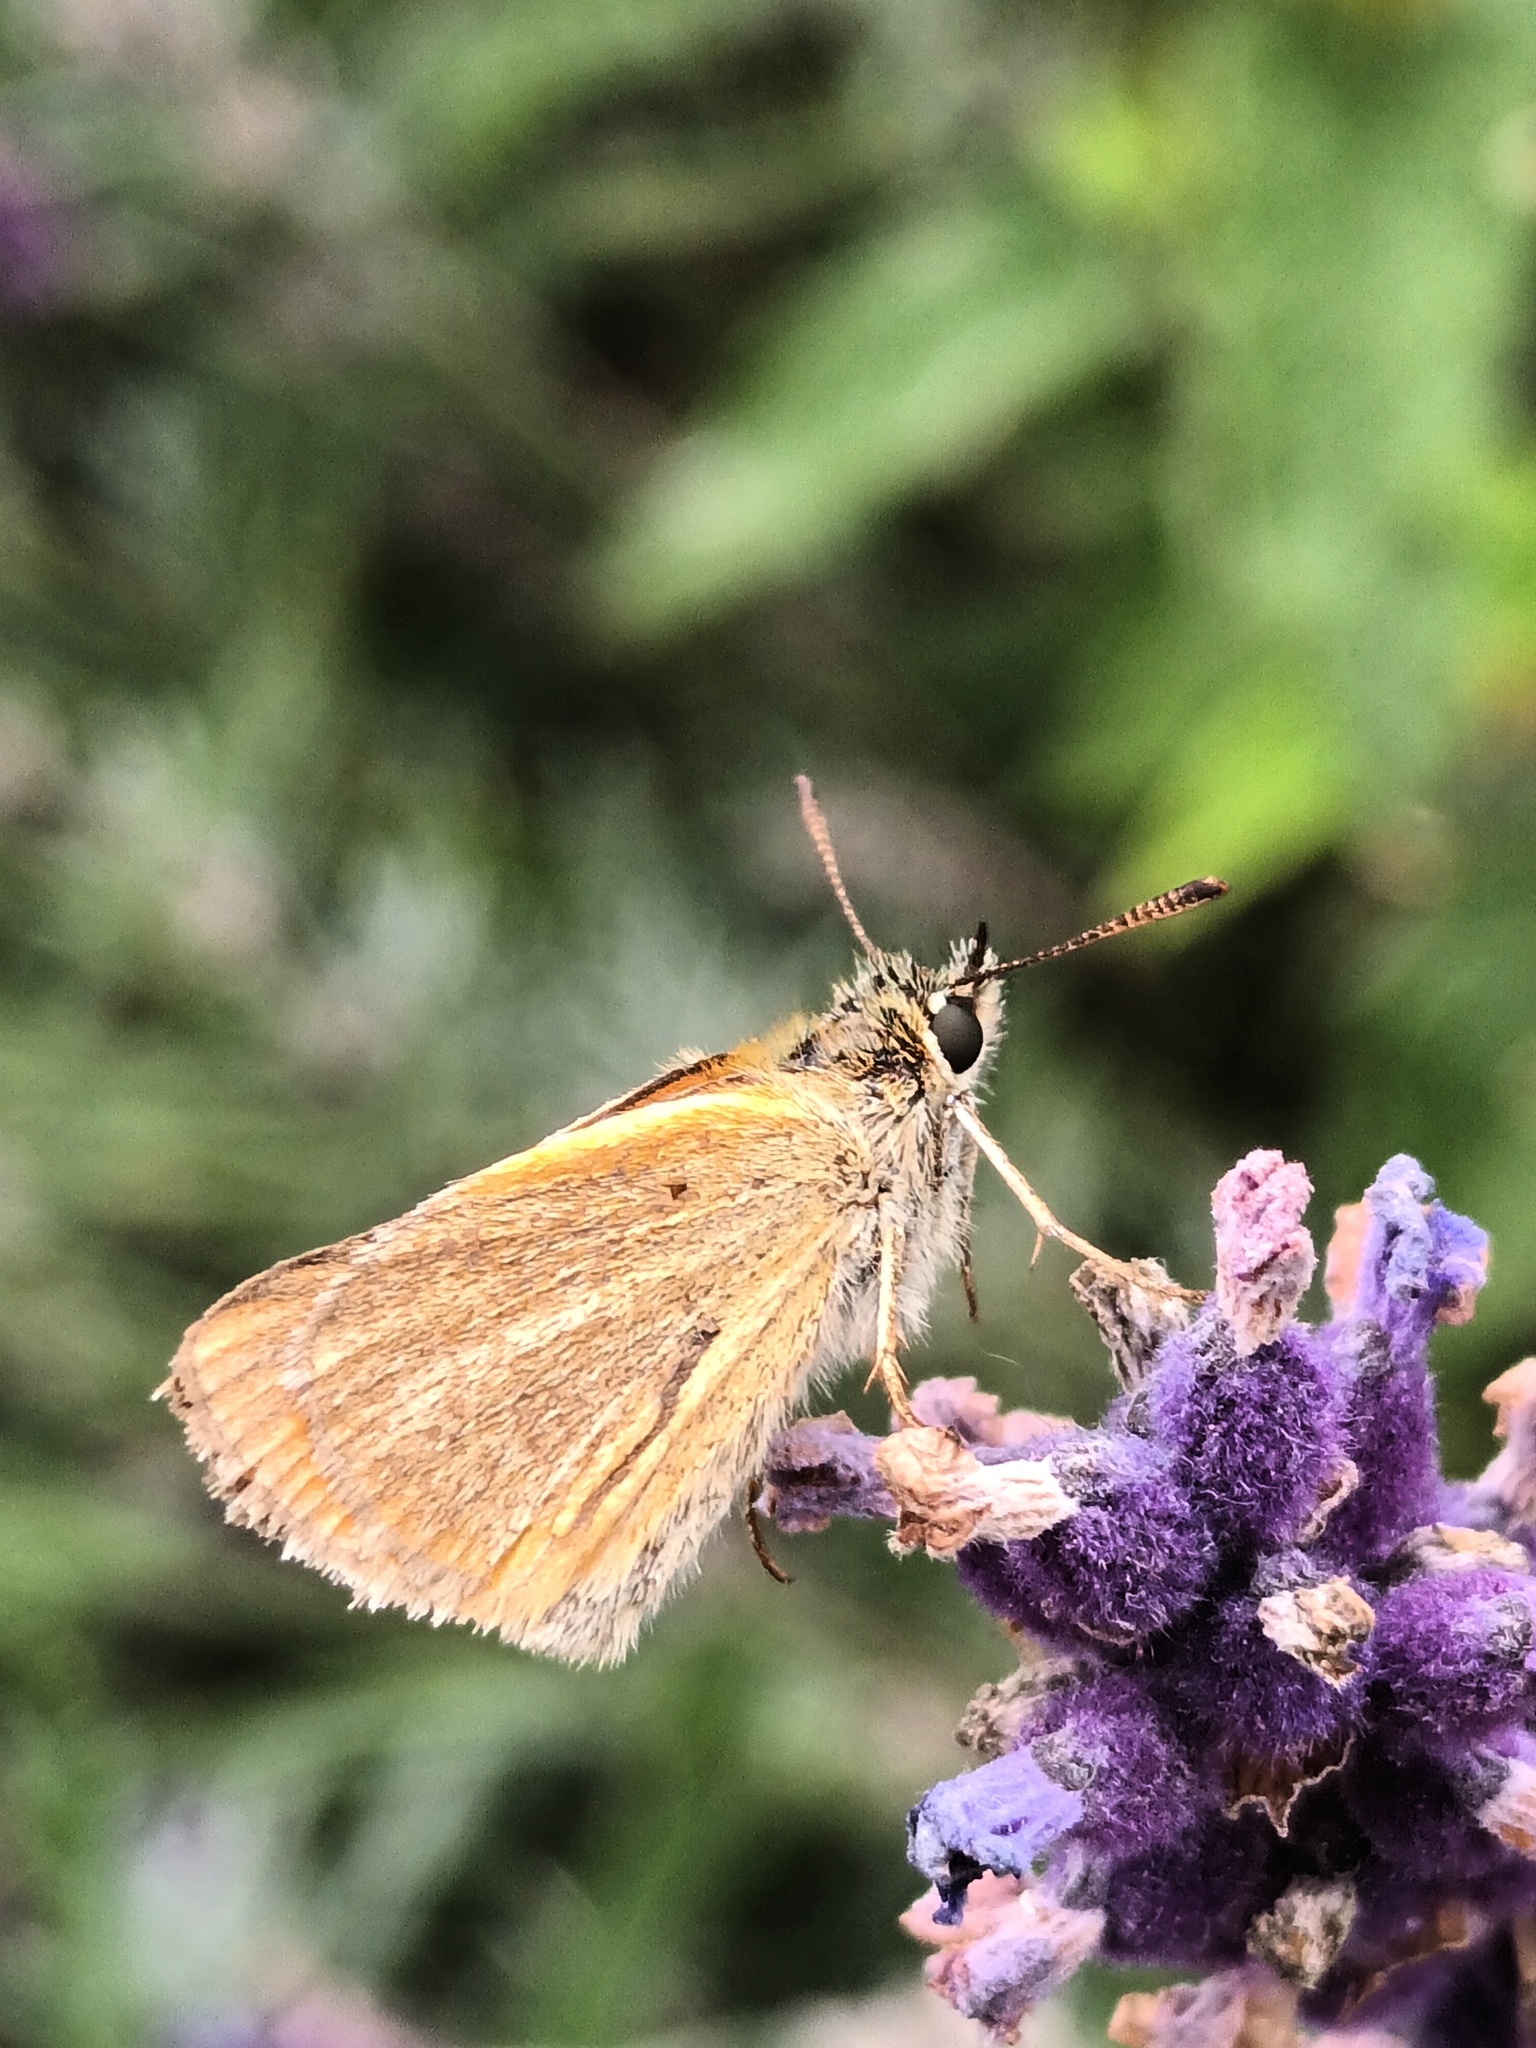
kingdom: Animalia
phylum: Arthropoda
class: Insecta
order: Lepidoptera
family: Hesperiidae
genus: Thymelicus
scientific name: Thymelicus lineola
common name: Essex skipper
